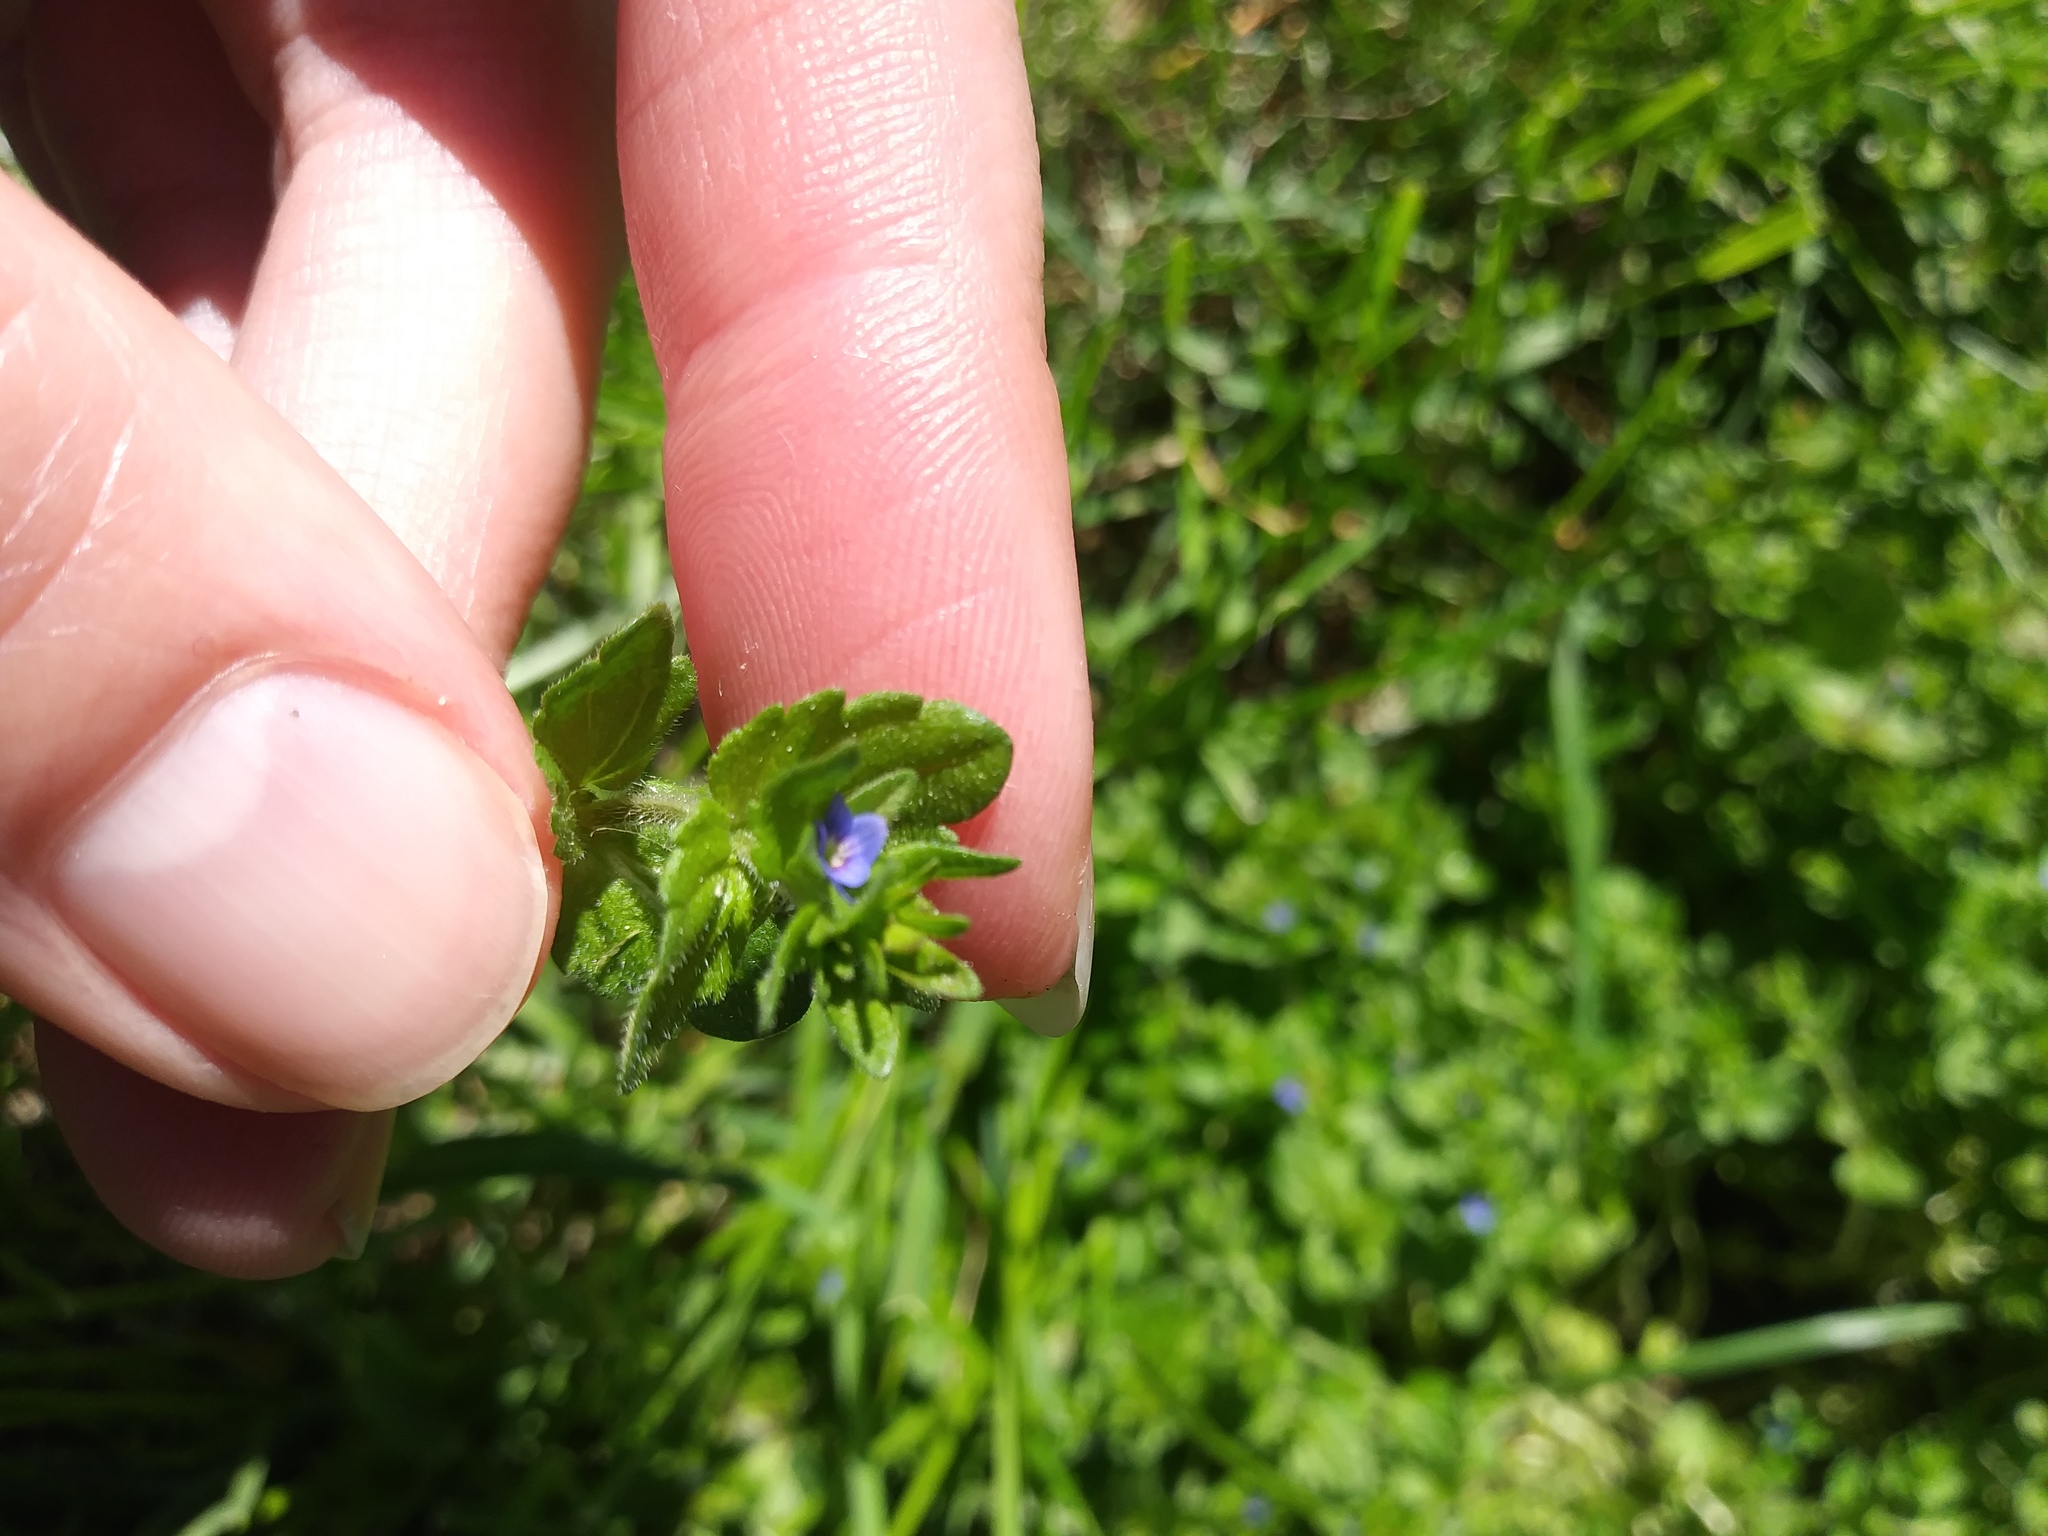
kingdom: Plantae
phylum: Tracheophyta
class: Magnoliopsida
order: Lamiales
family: Plantaginaceae
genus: Veronica
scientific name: Veronica arvensis
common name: Corn speedwell
